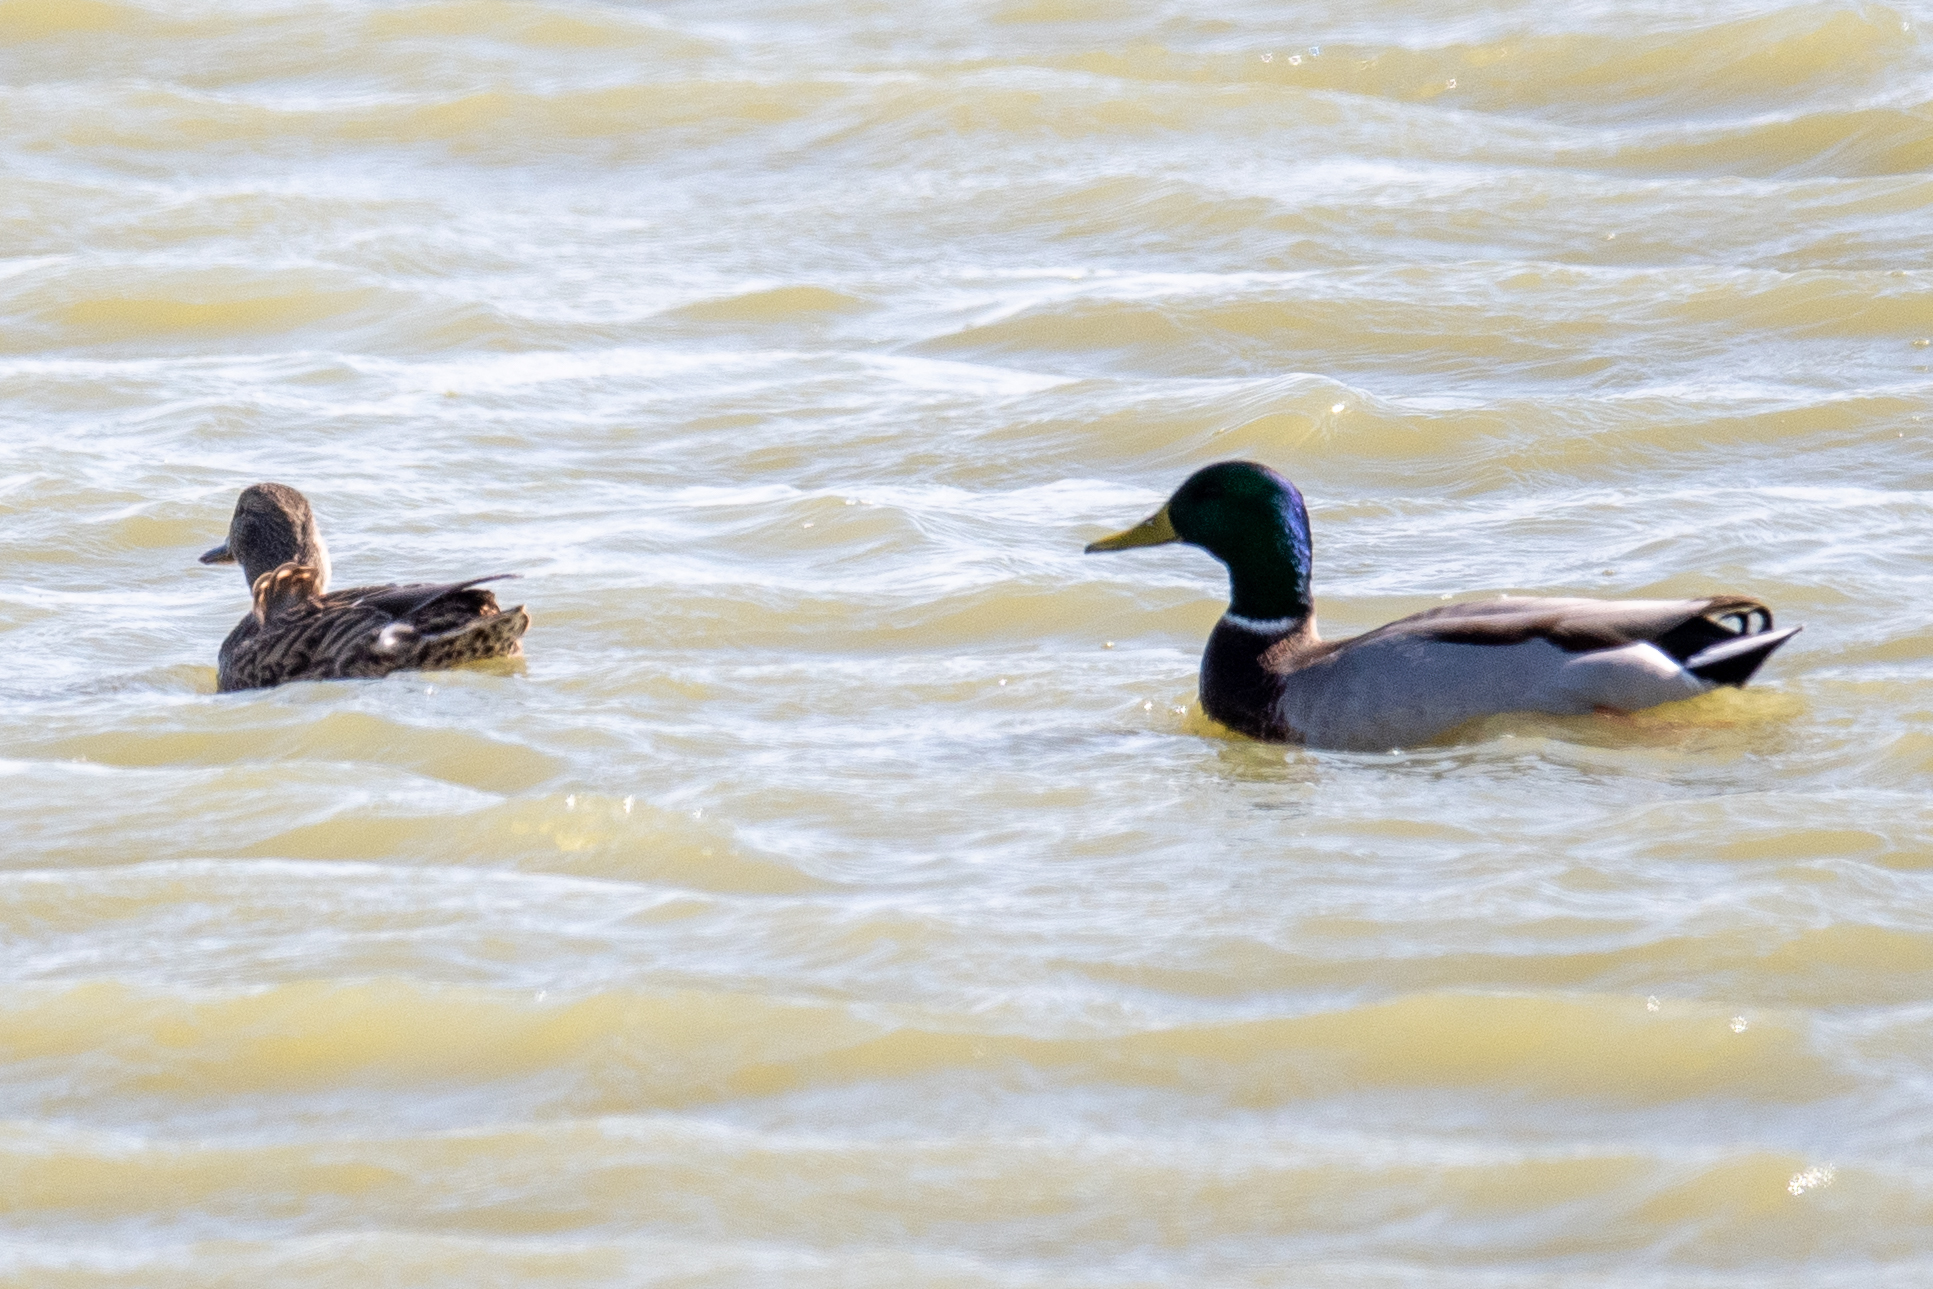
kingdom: Animalia
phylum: Chordata
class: Aves
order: Anseriformes
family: Anatidae
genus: Anas
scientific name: Anas platyrhynchos
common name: Mallard
